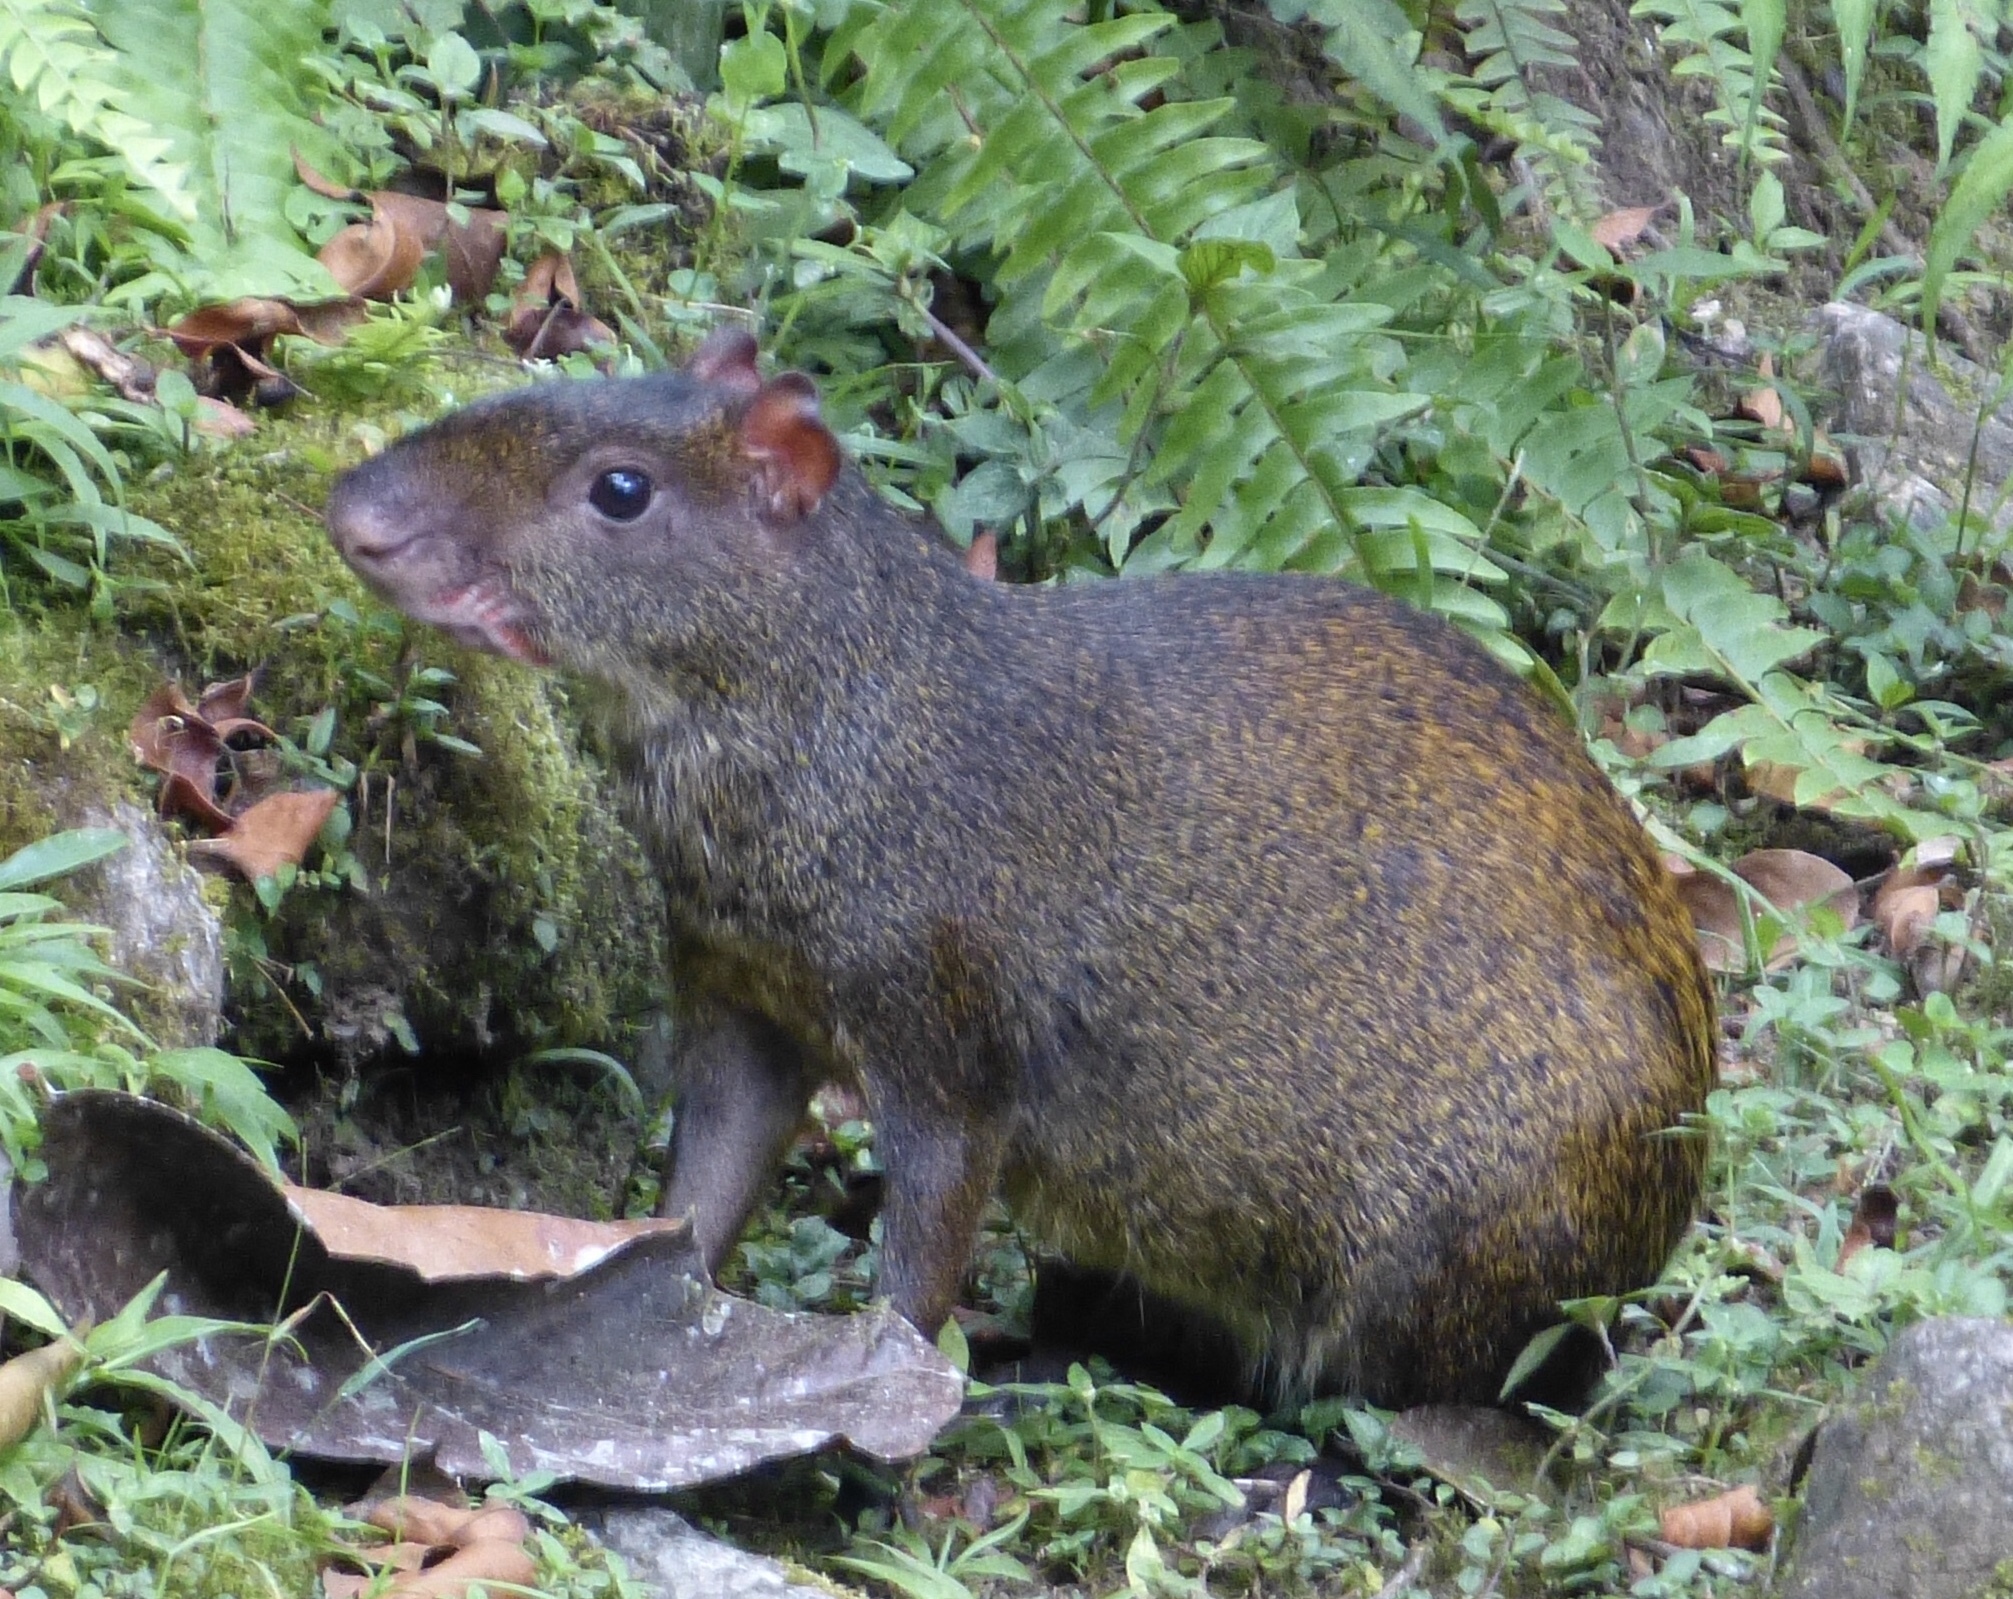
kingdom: Animalia
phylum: Chordata
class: Mammalia
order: Rodentia
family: Dasyproctidae
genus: Dasyprocta
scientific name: Dasyprocta punctata
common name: Central american agouti
